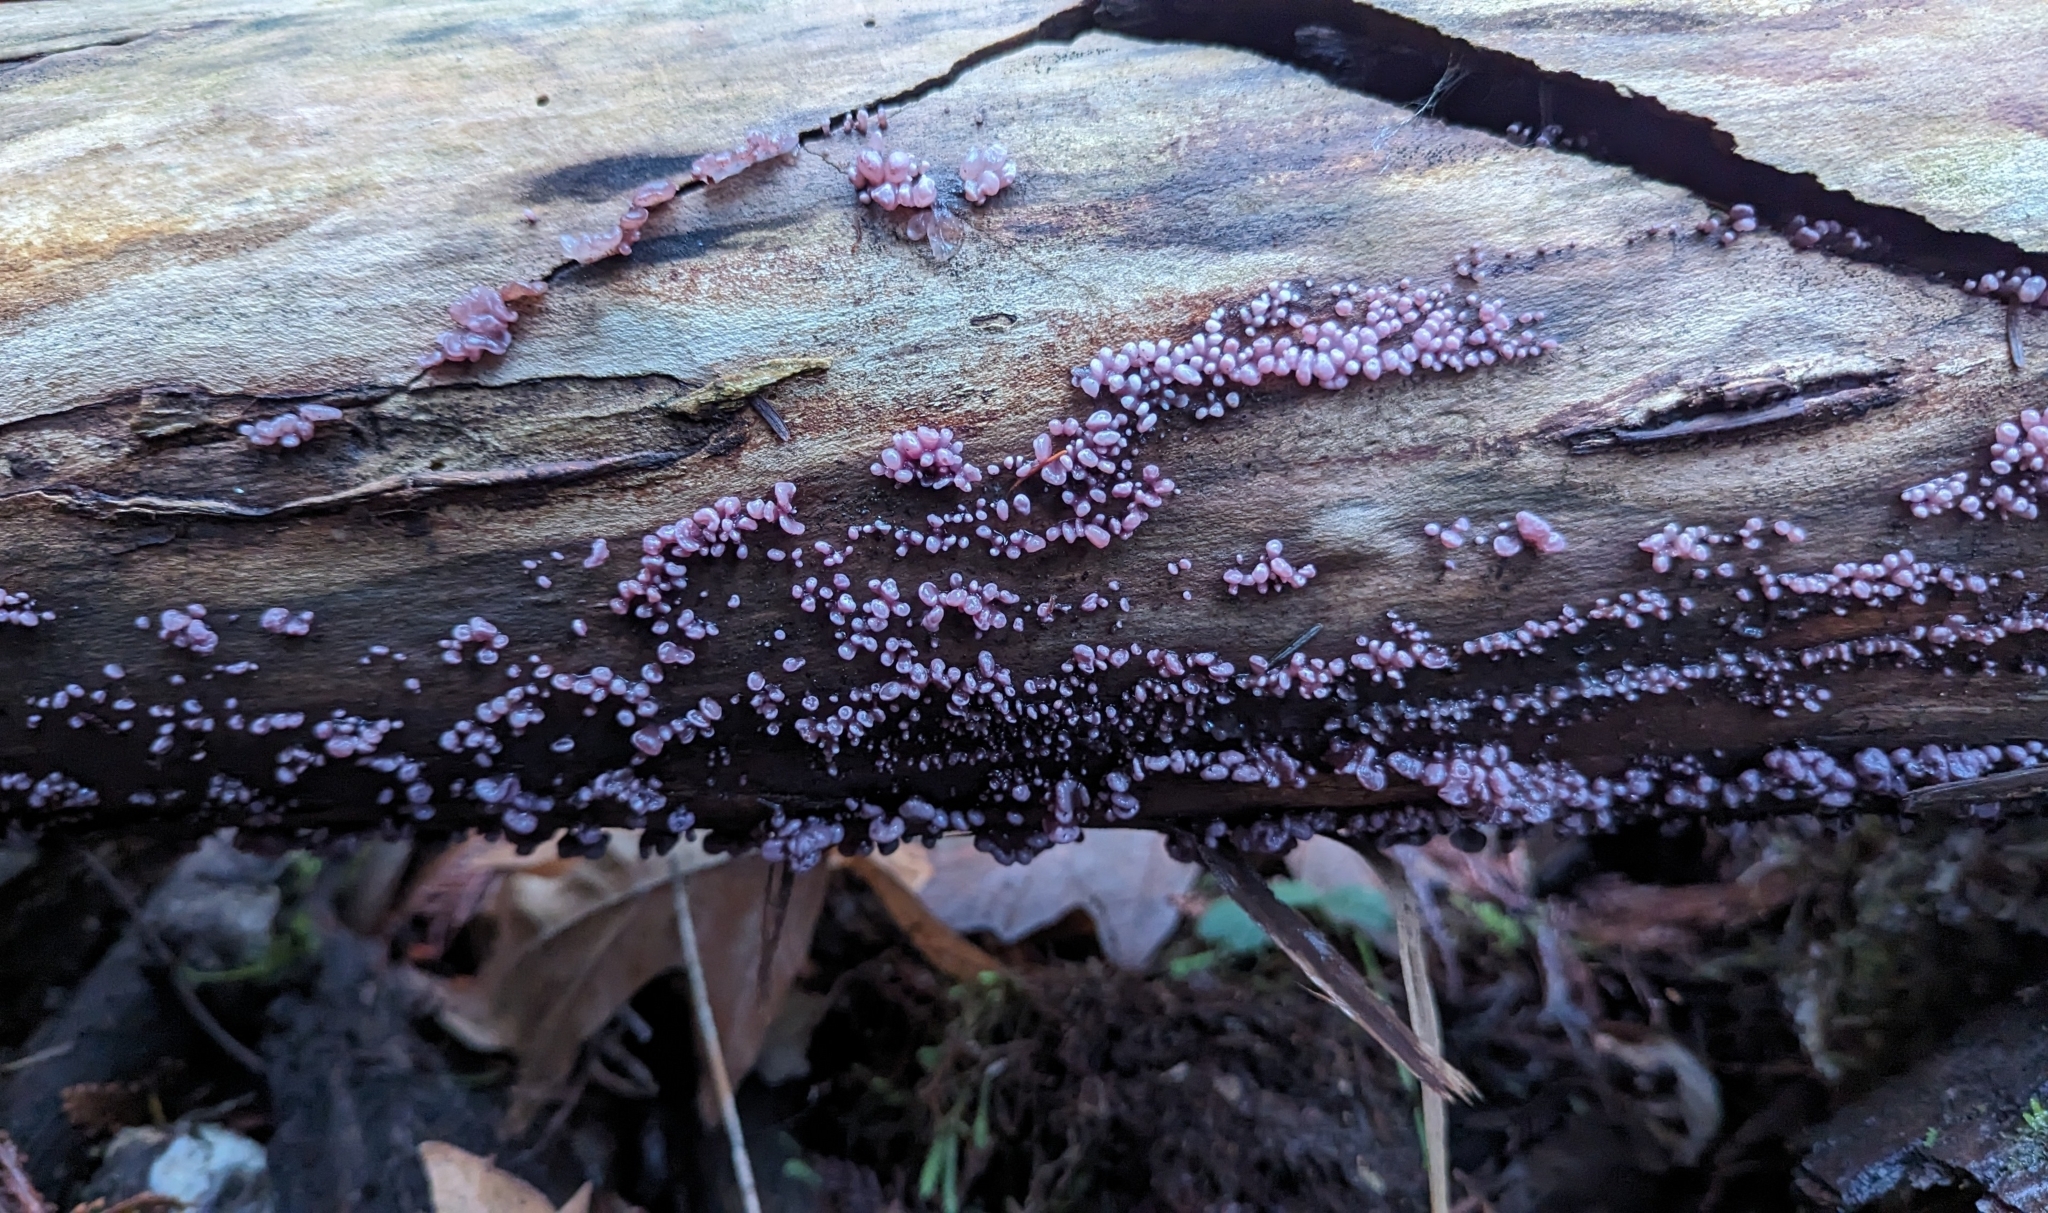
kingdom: Fungi
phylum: Ascomycota
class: Leotiomycetes
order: Helotiales
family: Gelatinodiscaceae
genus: Ascocoryne
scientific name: Ascocoryne sarcoides
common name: Purple jellydisc
